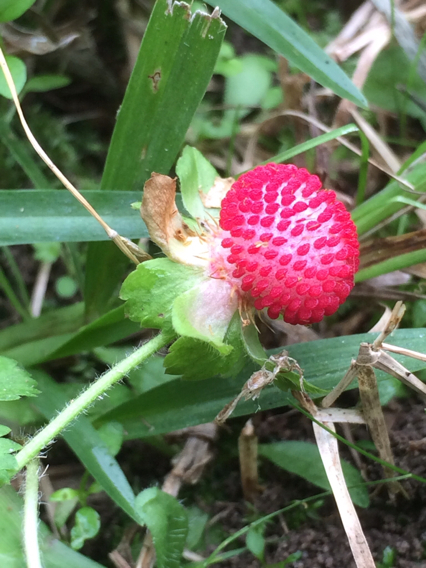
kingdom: Plantae
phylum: Tracheophyta
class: Magnoliopsida
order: Rosales
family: Rosaceae
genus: Potentilla
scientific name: Potentilla indica
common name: Yellow-flowered strawberry
